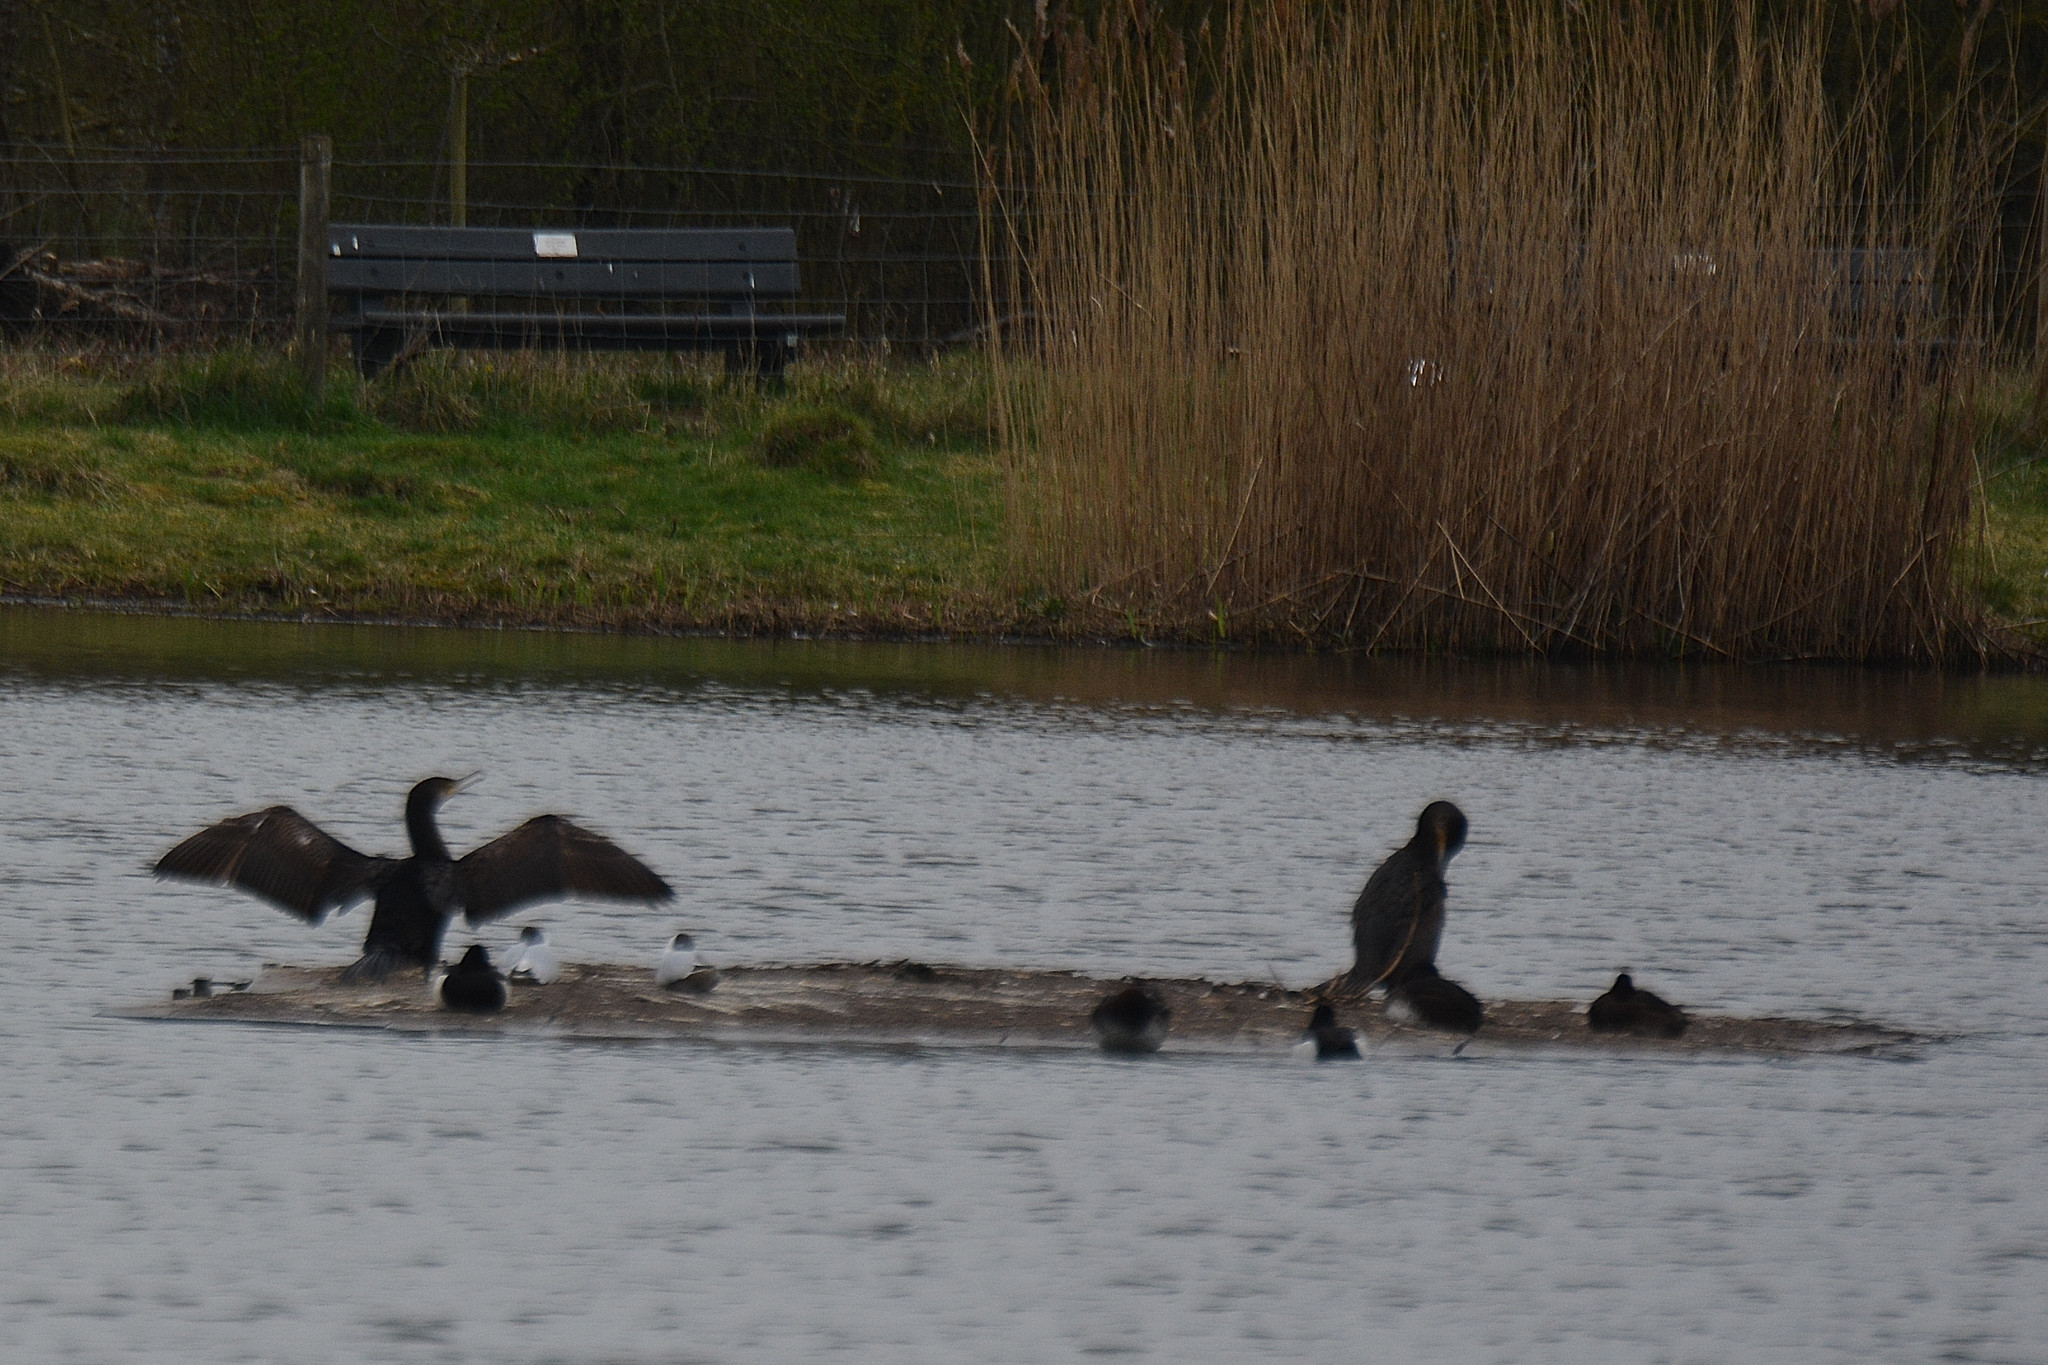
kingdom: Animalia
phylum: Chordata
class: Aves
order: Suliformes
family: Phalacrocoracidae
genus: Phalacrocorax
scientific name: Phalacrocorax carbo
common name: Great cormorant
